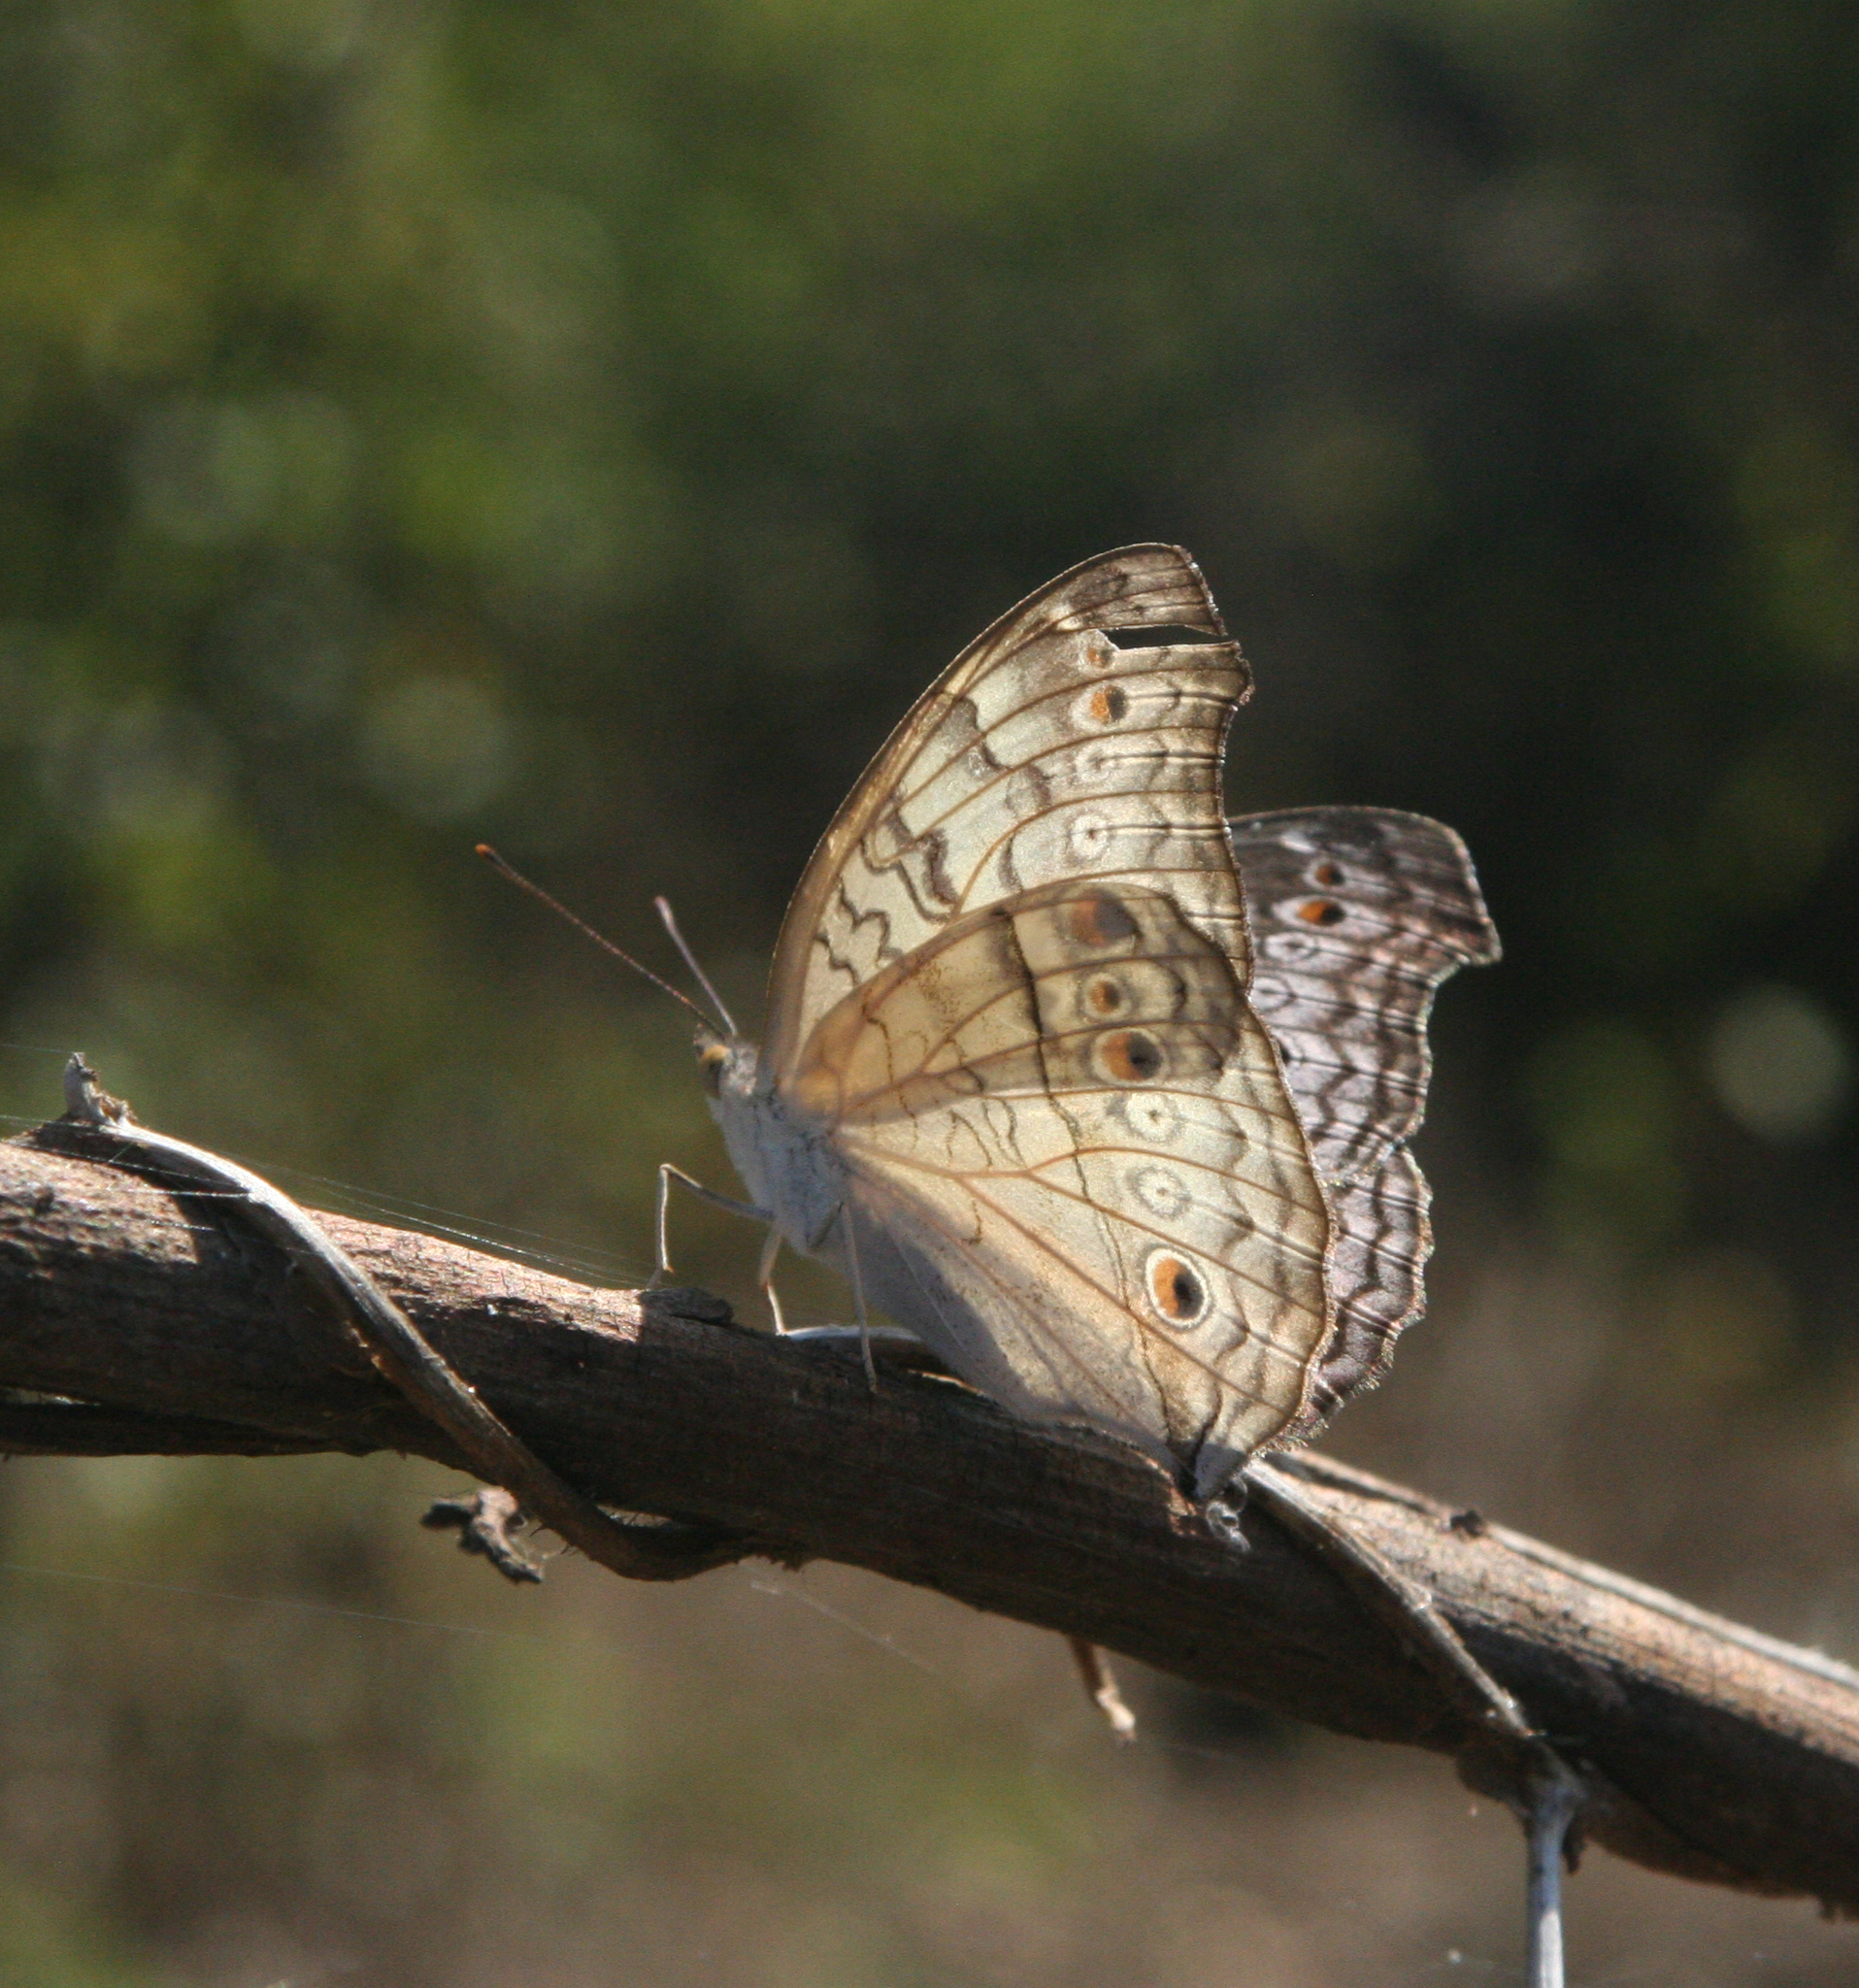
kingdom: Animalia
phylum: Arthropoda
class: Insecta
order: Lepidoptera
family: Nymphalidae
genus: Junonia
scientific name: Junonia atlites
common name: Grey pansy
